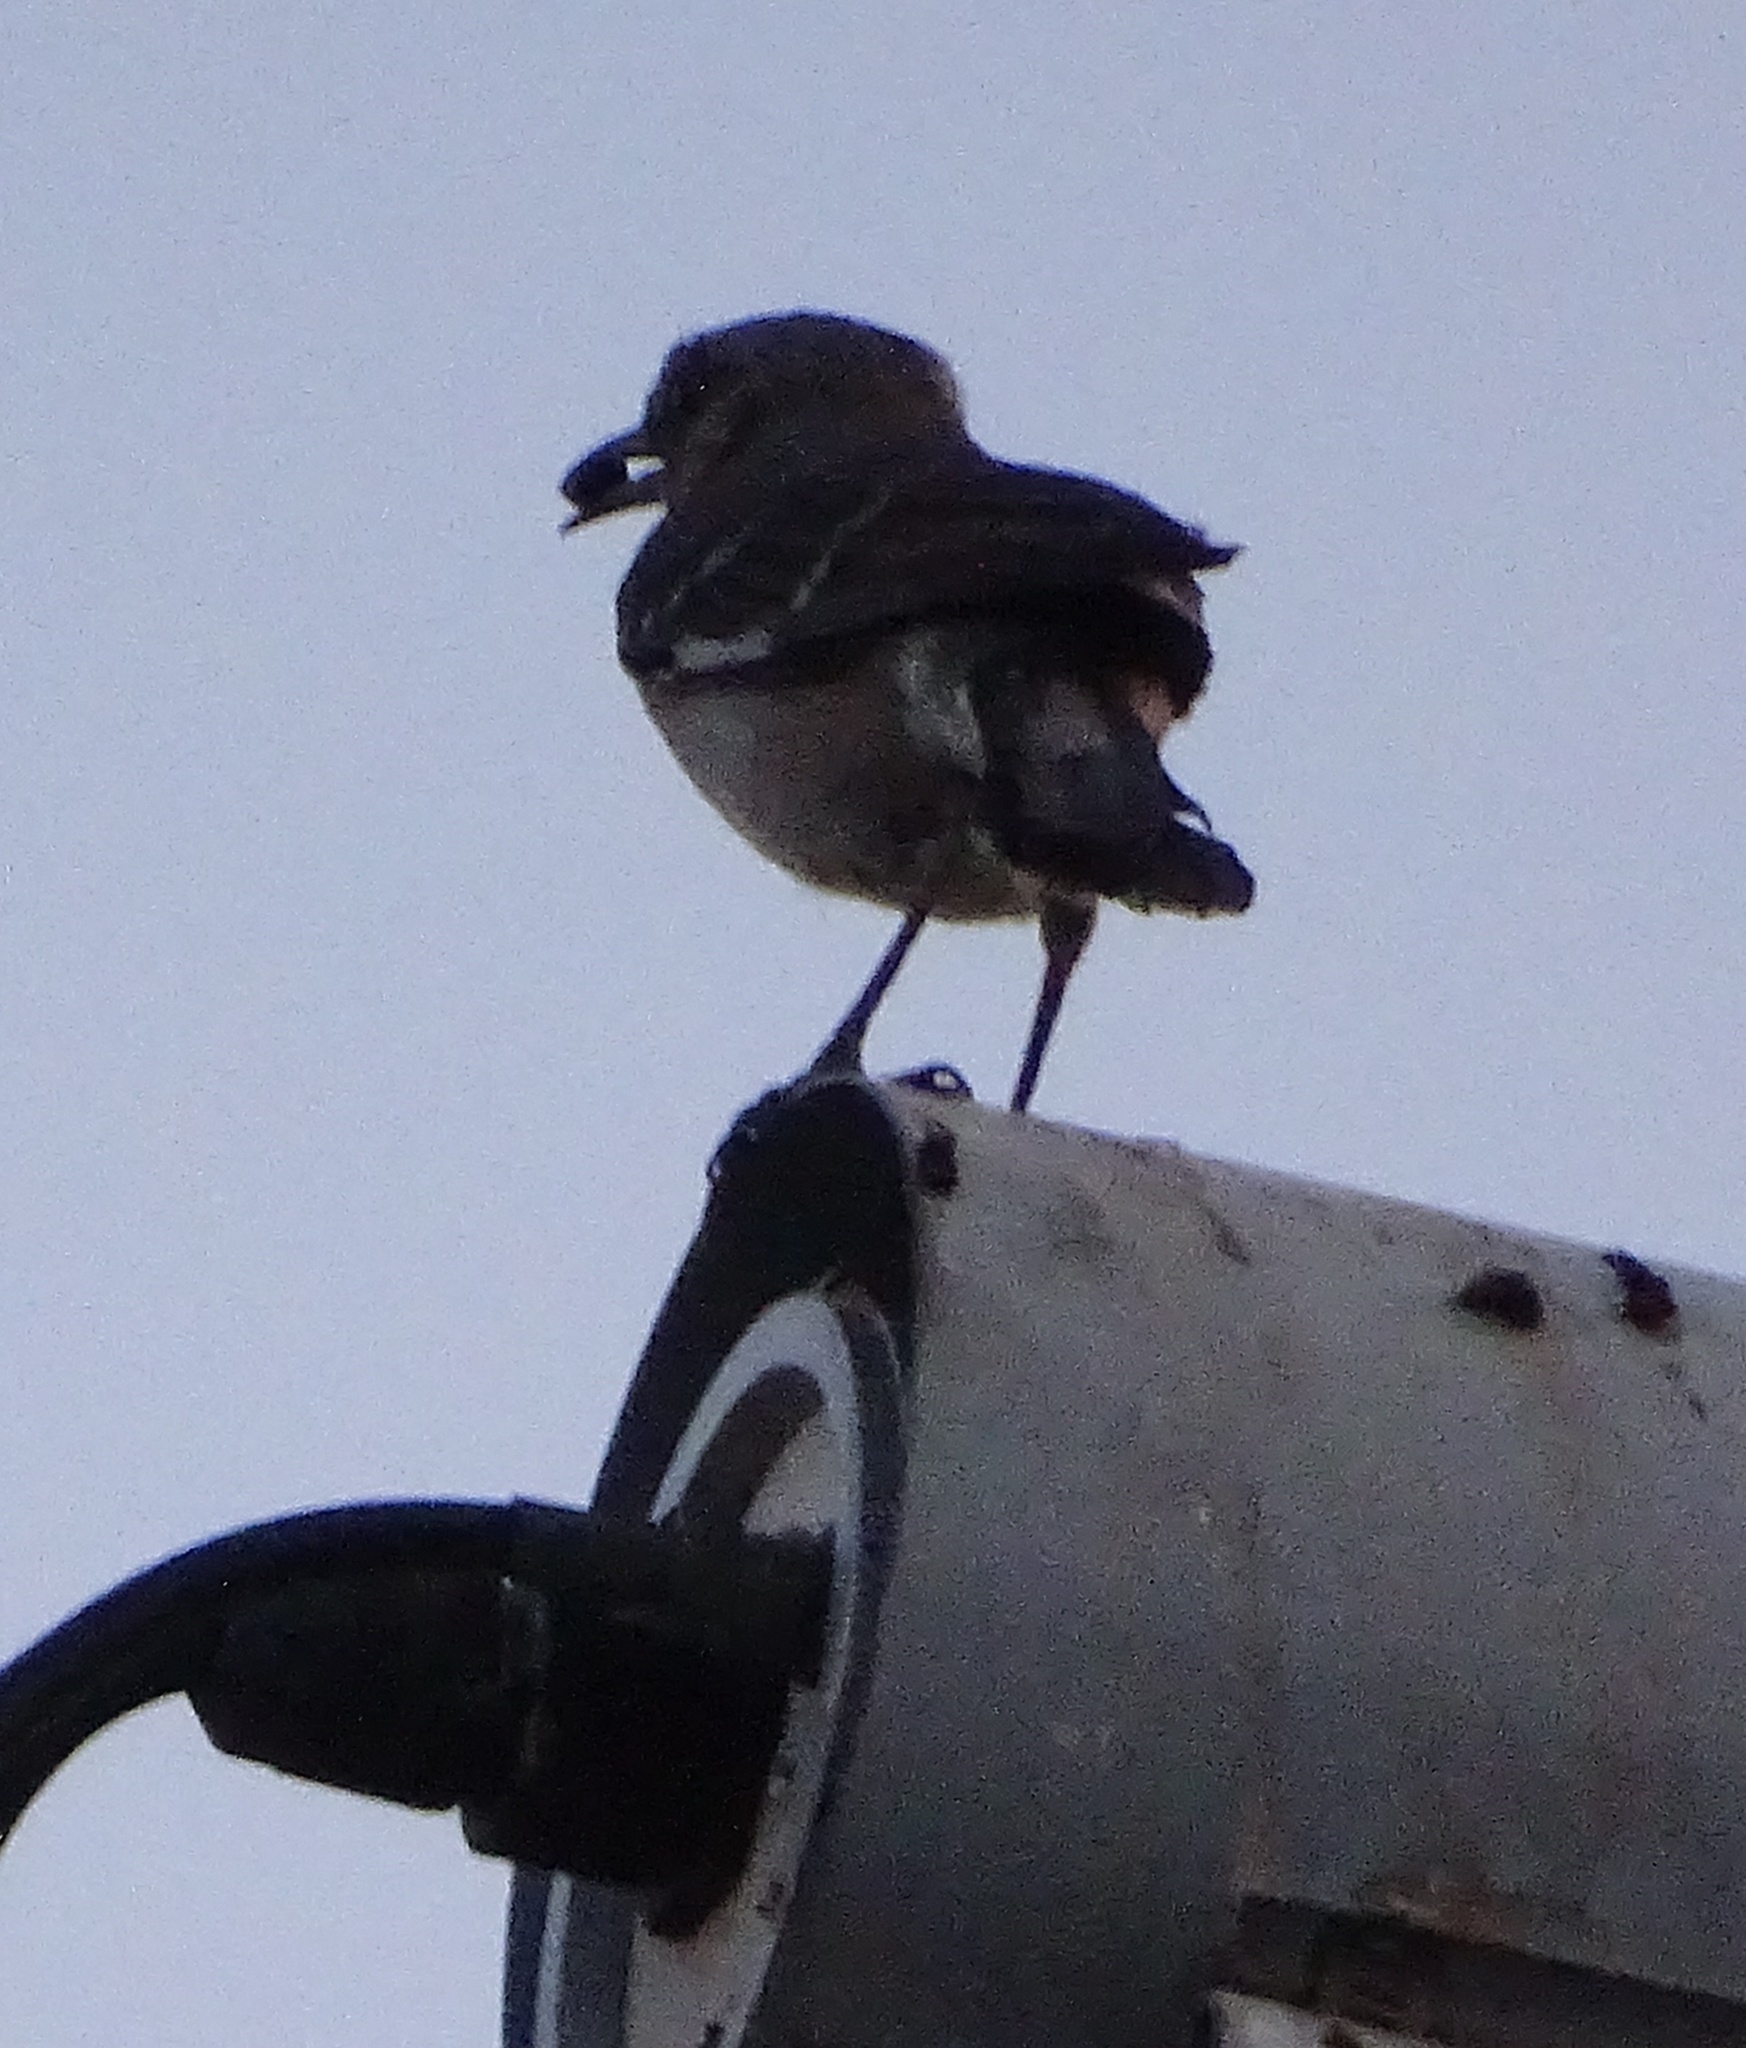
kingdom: Animalia
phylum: Chordata
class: Aves
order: Passeriformes
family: Mimidae
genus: Mimus
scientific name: Mimus polyglottos
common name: Northern mockingbird
